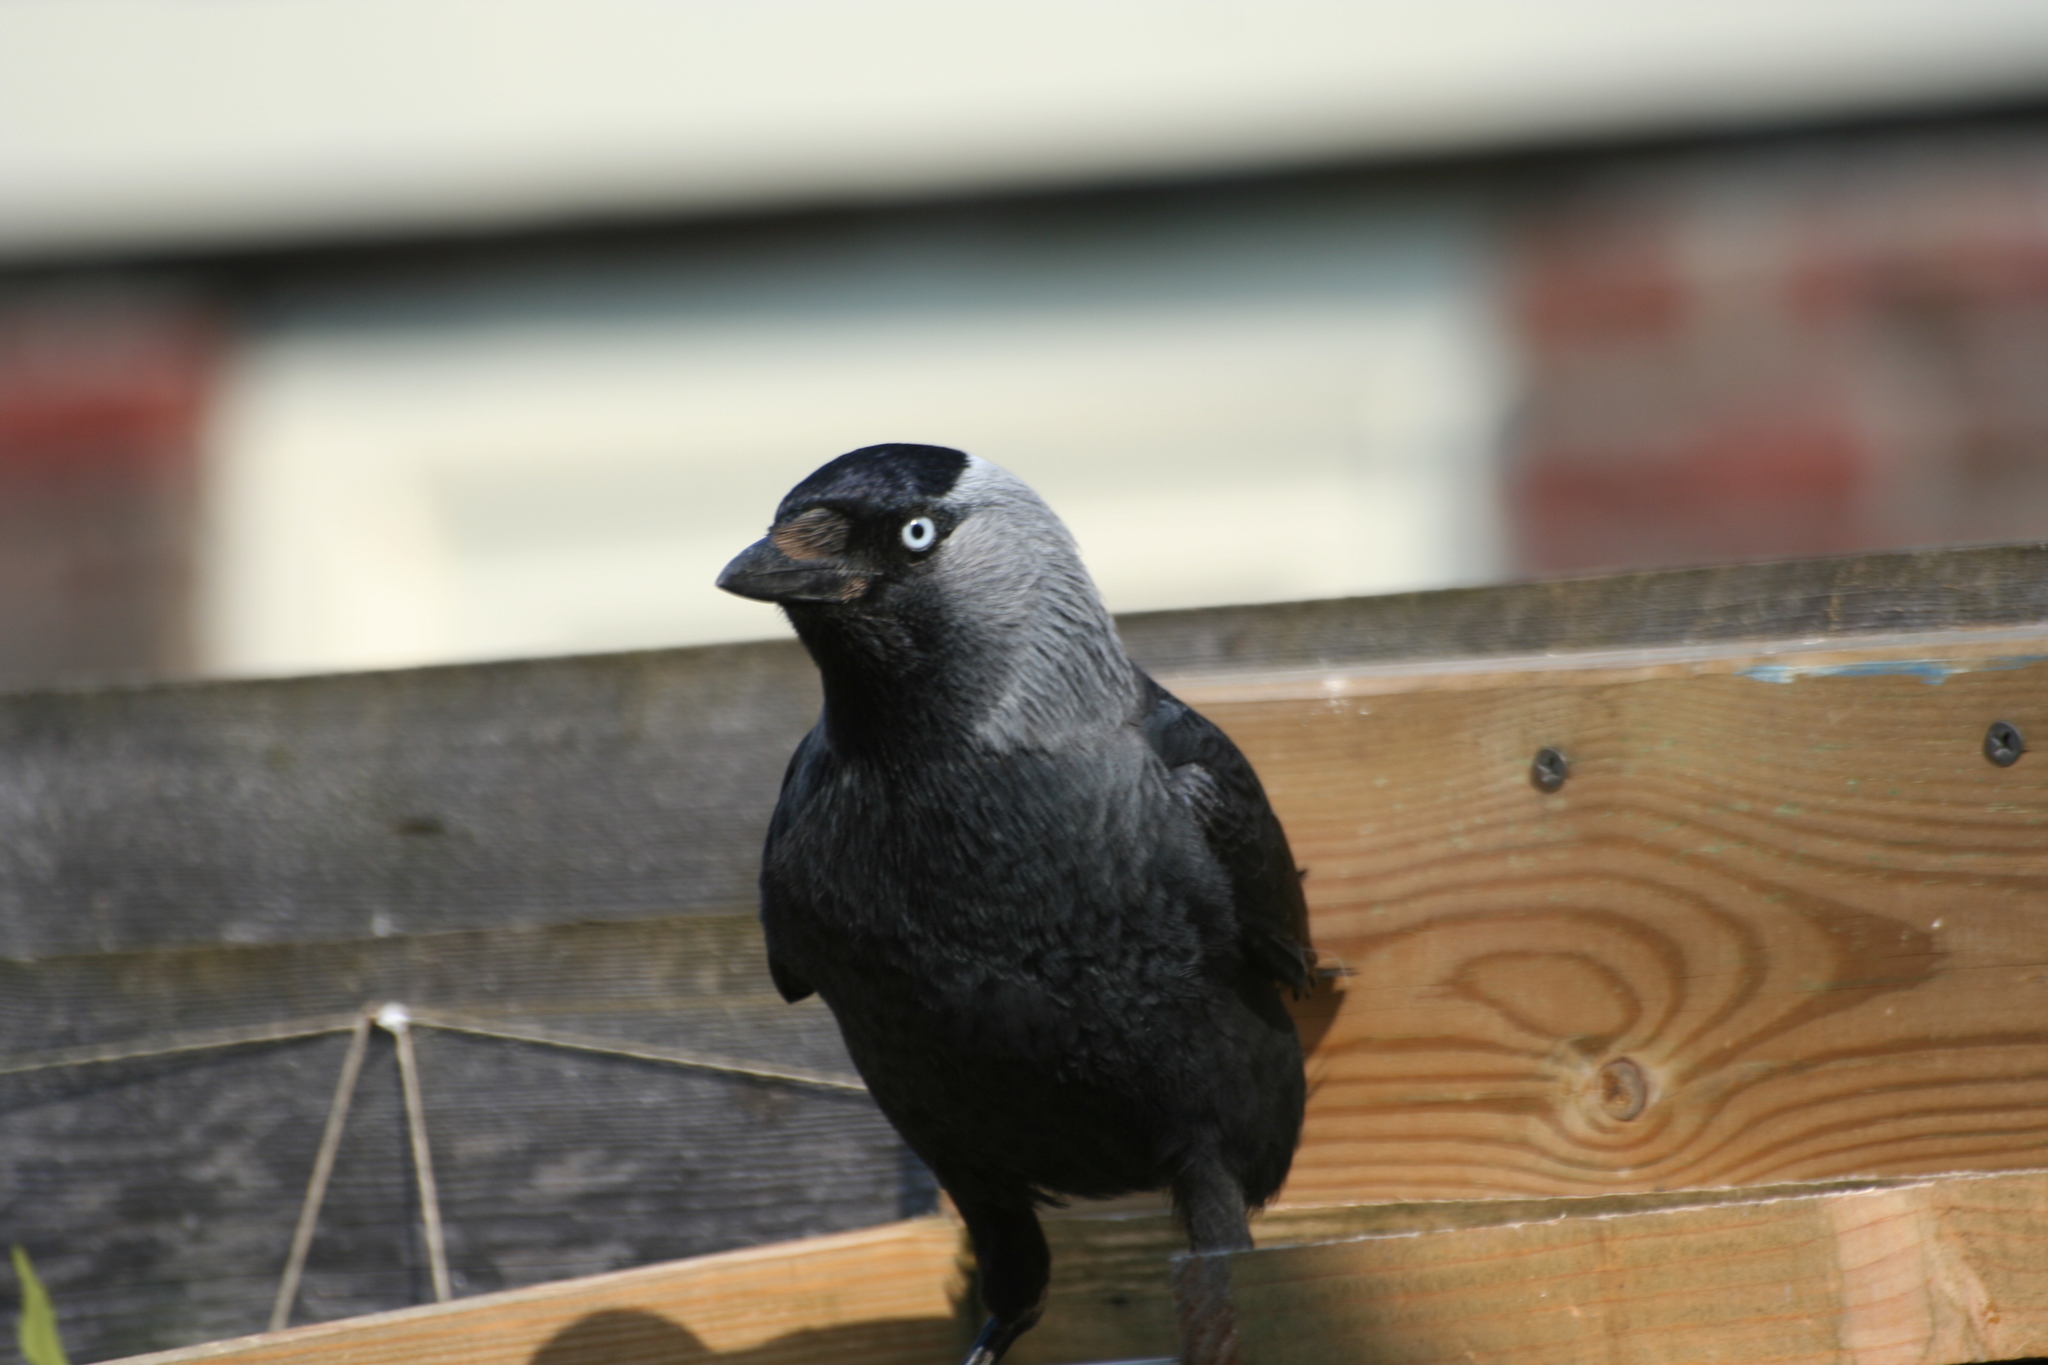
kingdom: Animalia
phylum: Chordata
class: Aves
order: Passeriformes
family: Corvidae
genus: Coloeus
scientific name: Coloeus monedula
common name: Western jackdaw
